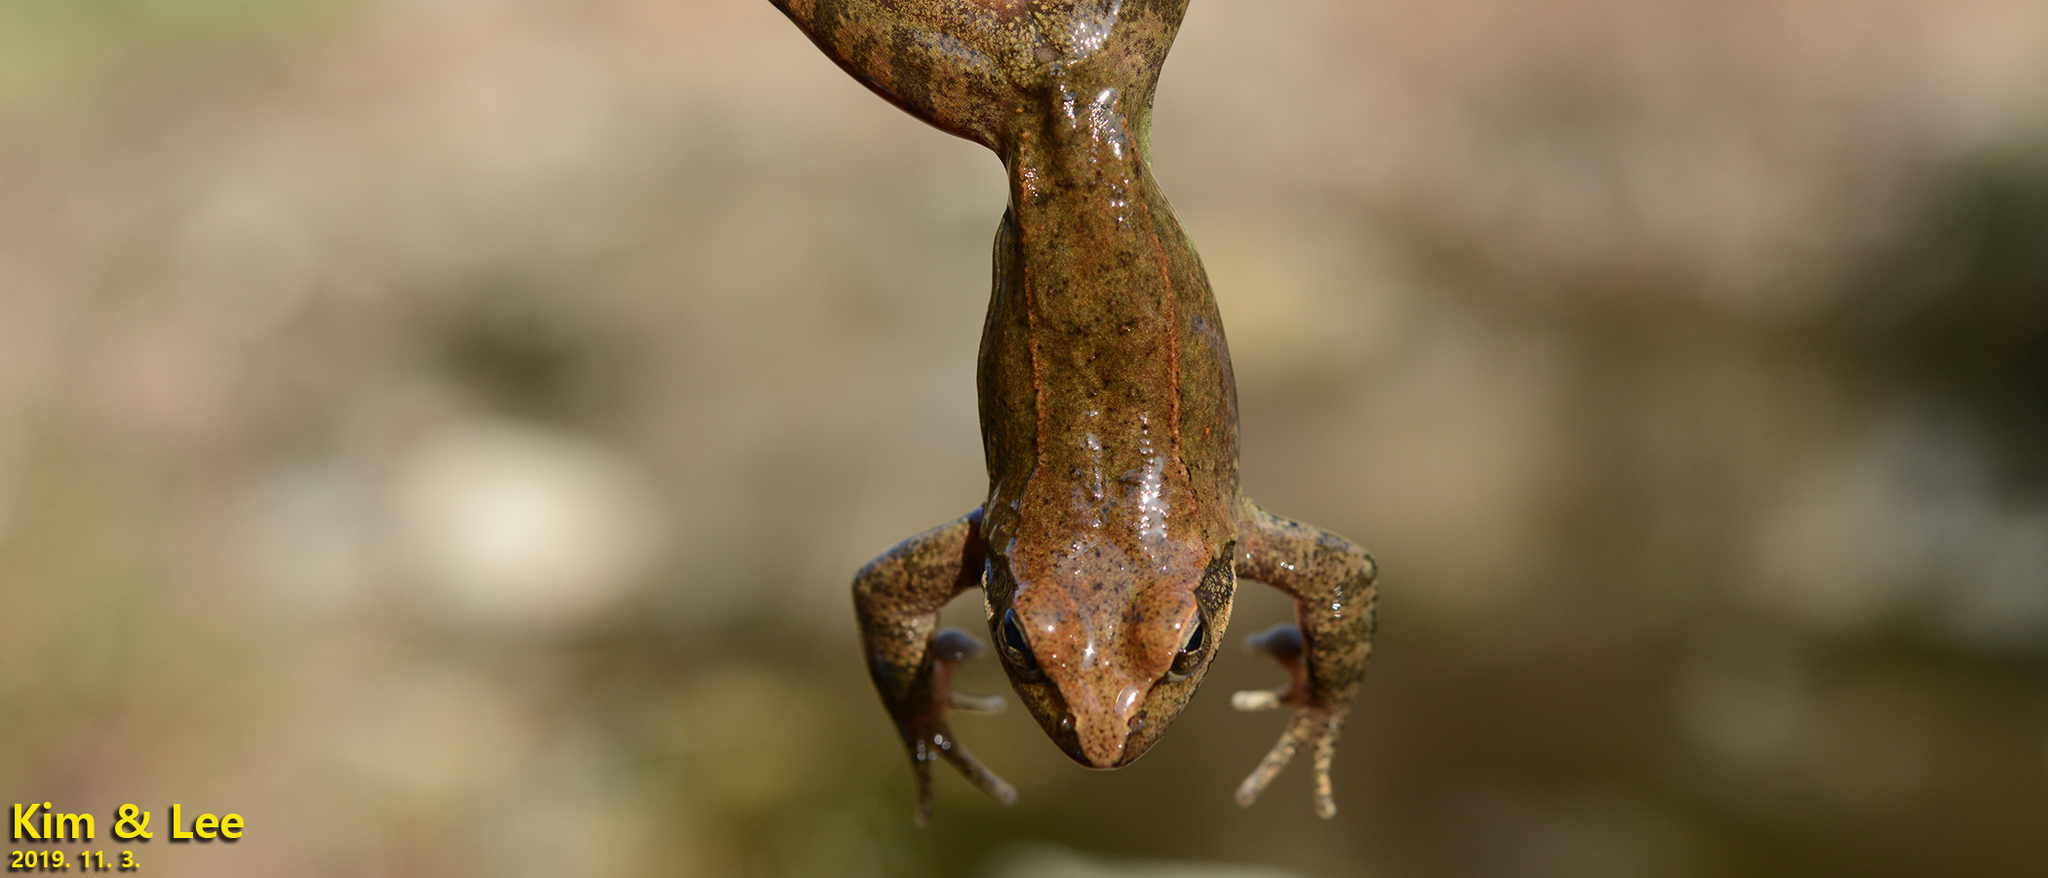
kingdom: Animalia
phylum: Chordata
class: Amphibia
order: Anura
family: Ranidae
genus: Rana
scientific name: Rana huanrenensis
